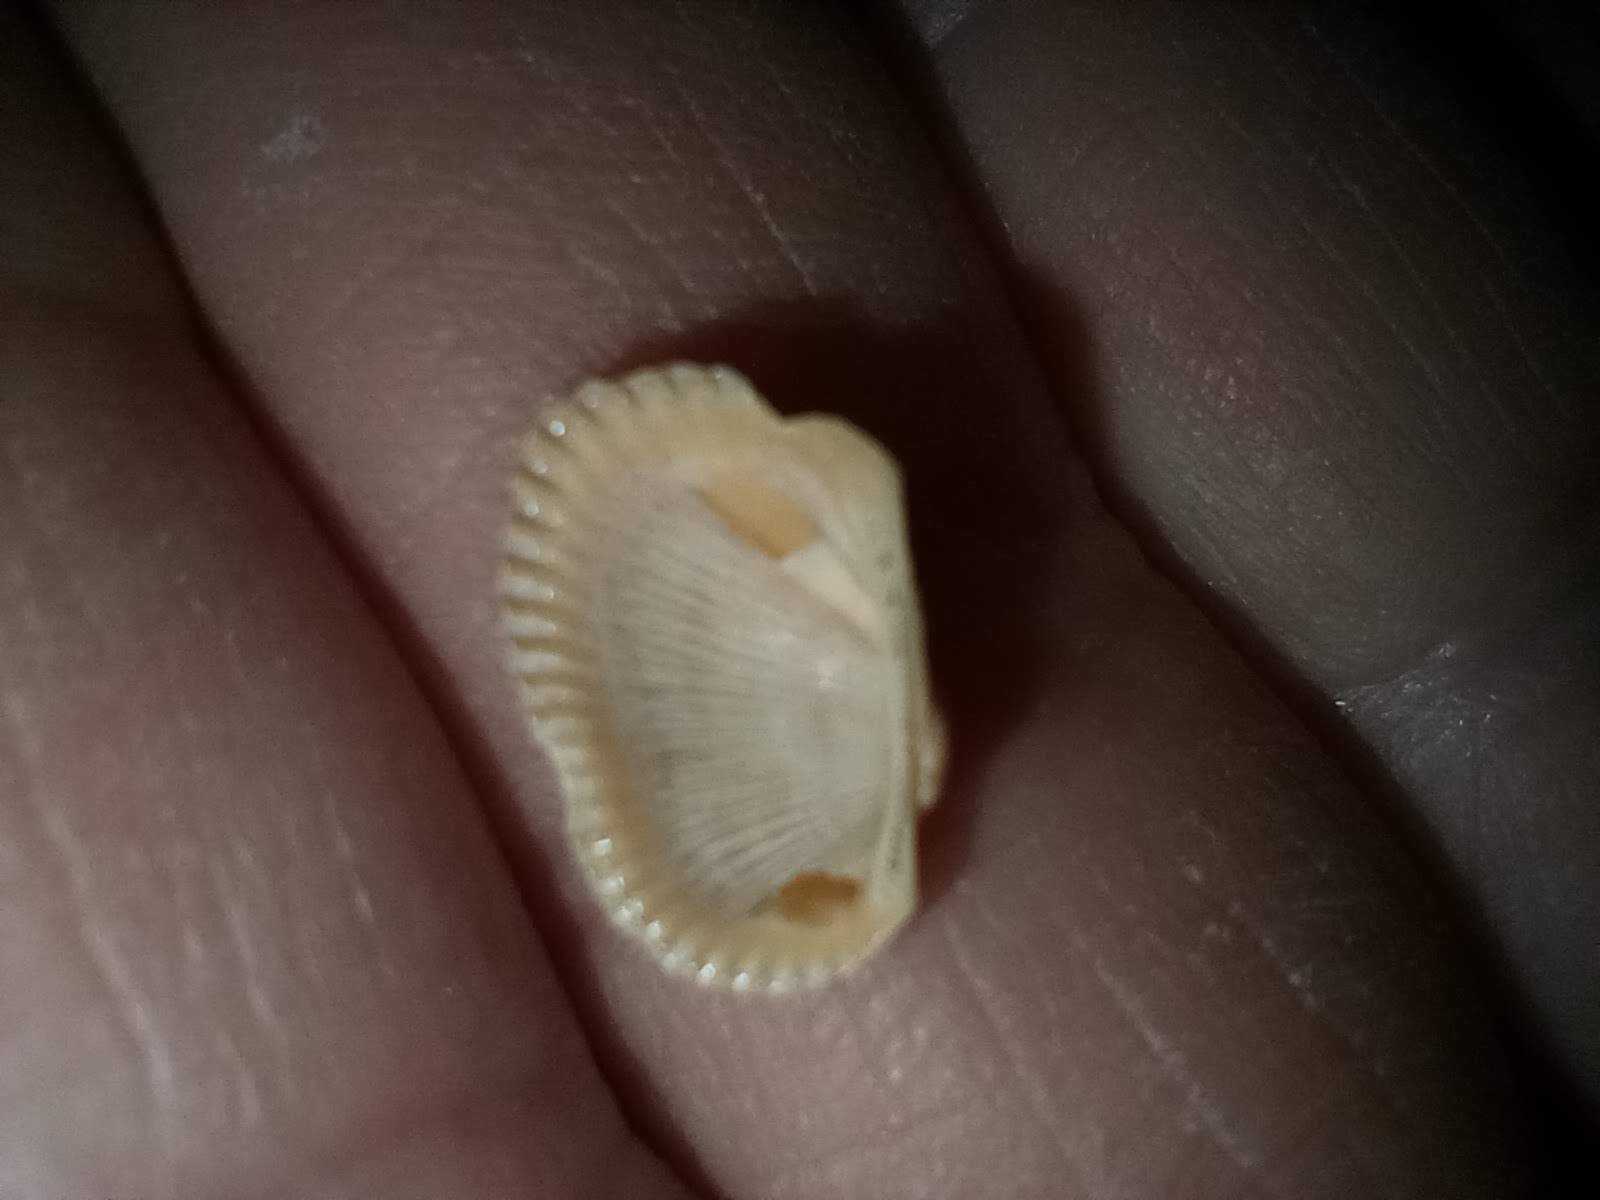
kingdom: Animalia
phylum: Mollusca
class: Bivalvia
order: Arcida
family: Arcidae
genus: Anadara
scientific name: Anadara transversa
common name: Transverse ark
